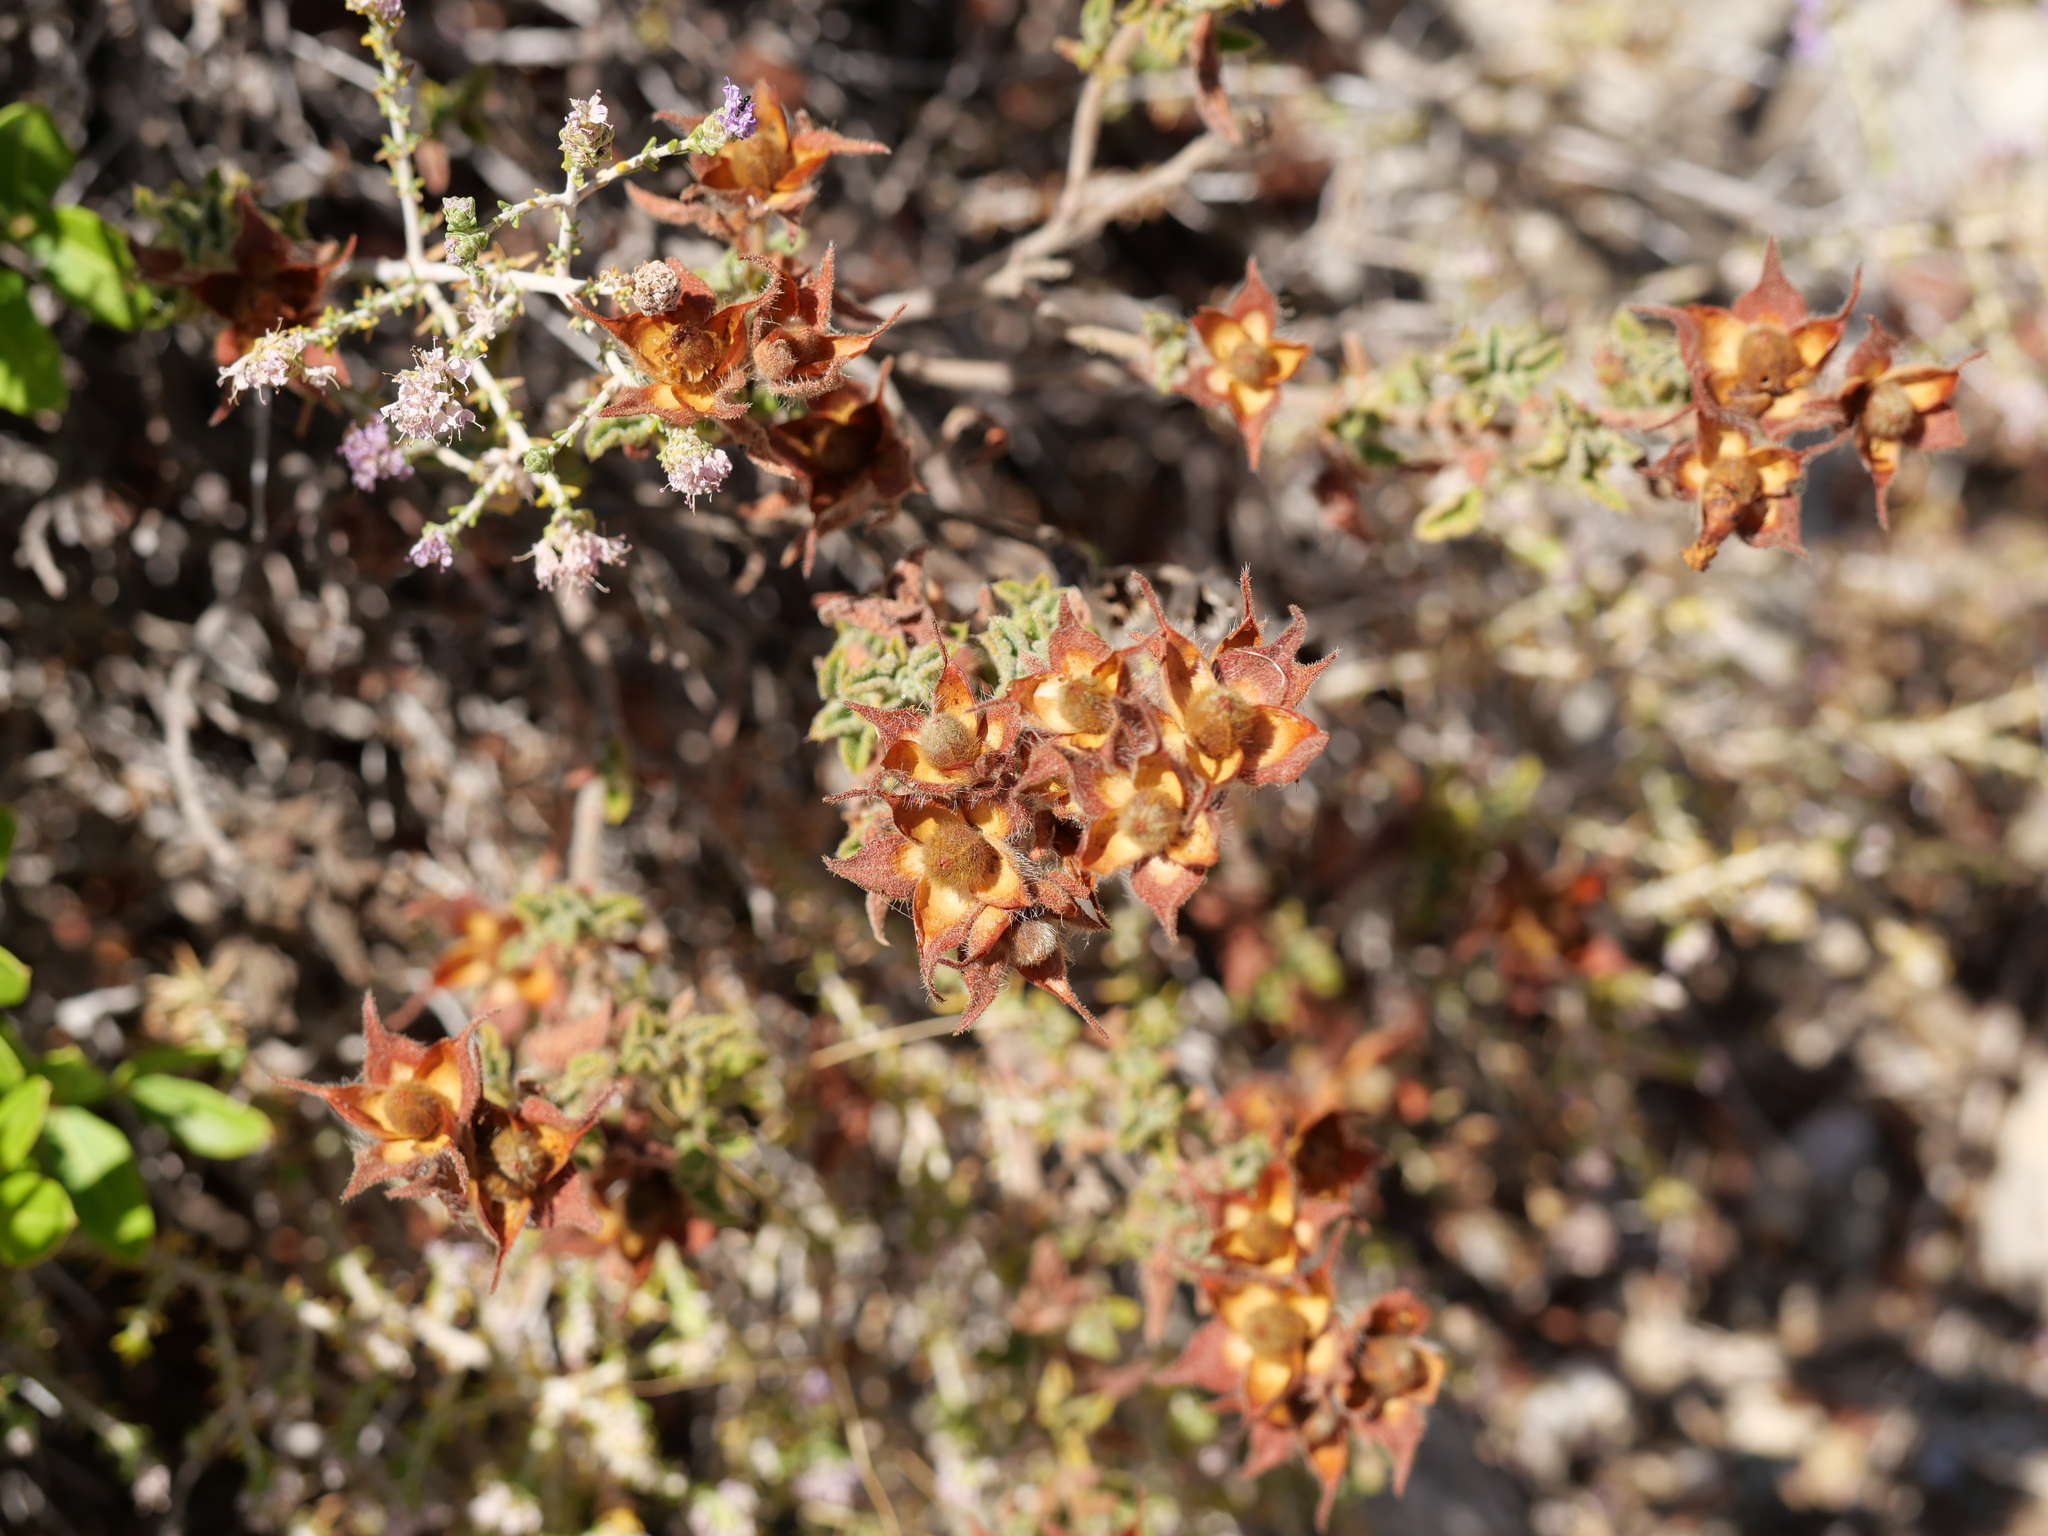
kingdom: Plantae
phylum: Tracheophyta
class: Magnoliopsida
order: Malvales
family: Cistaceae
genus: Cistus
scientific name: Cistus creticus
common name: Cretan rockrose
